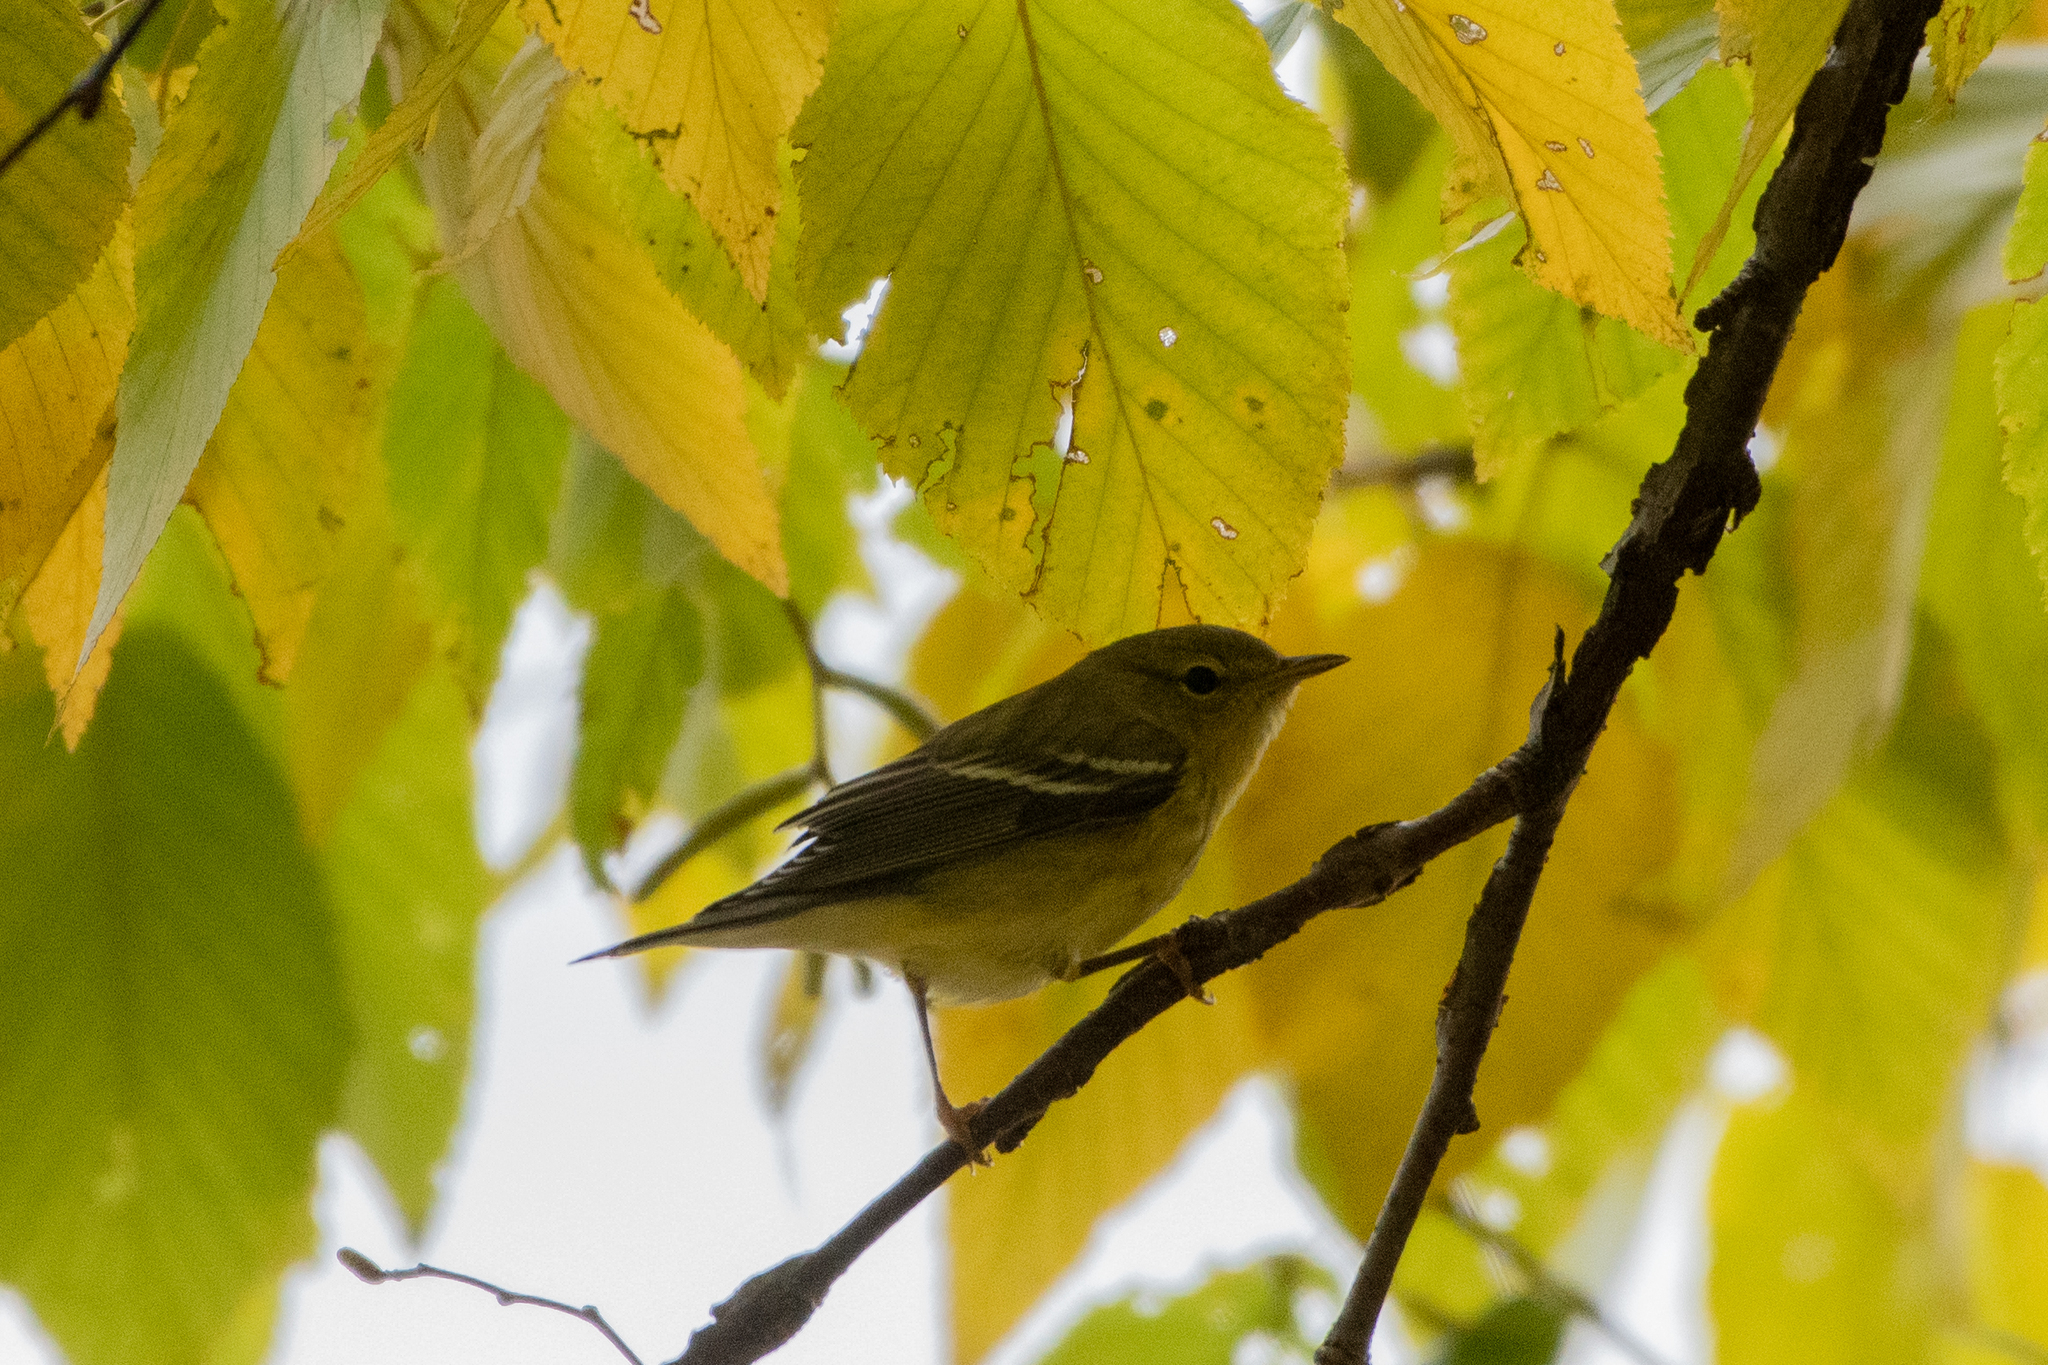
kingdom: Animalia
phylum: Chordata
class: Aves
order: Passeriformes
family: Parulidae
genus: Setophaga
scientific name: Setophaga striata
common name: Blackpoll warbler
